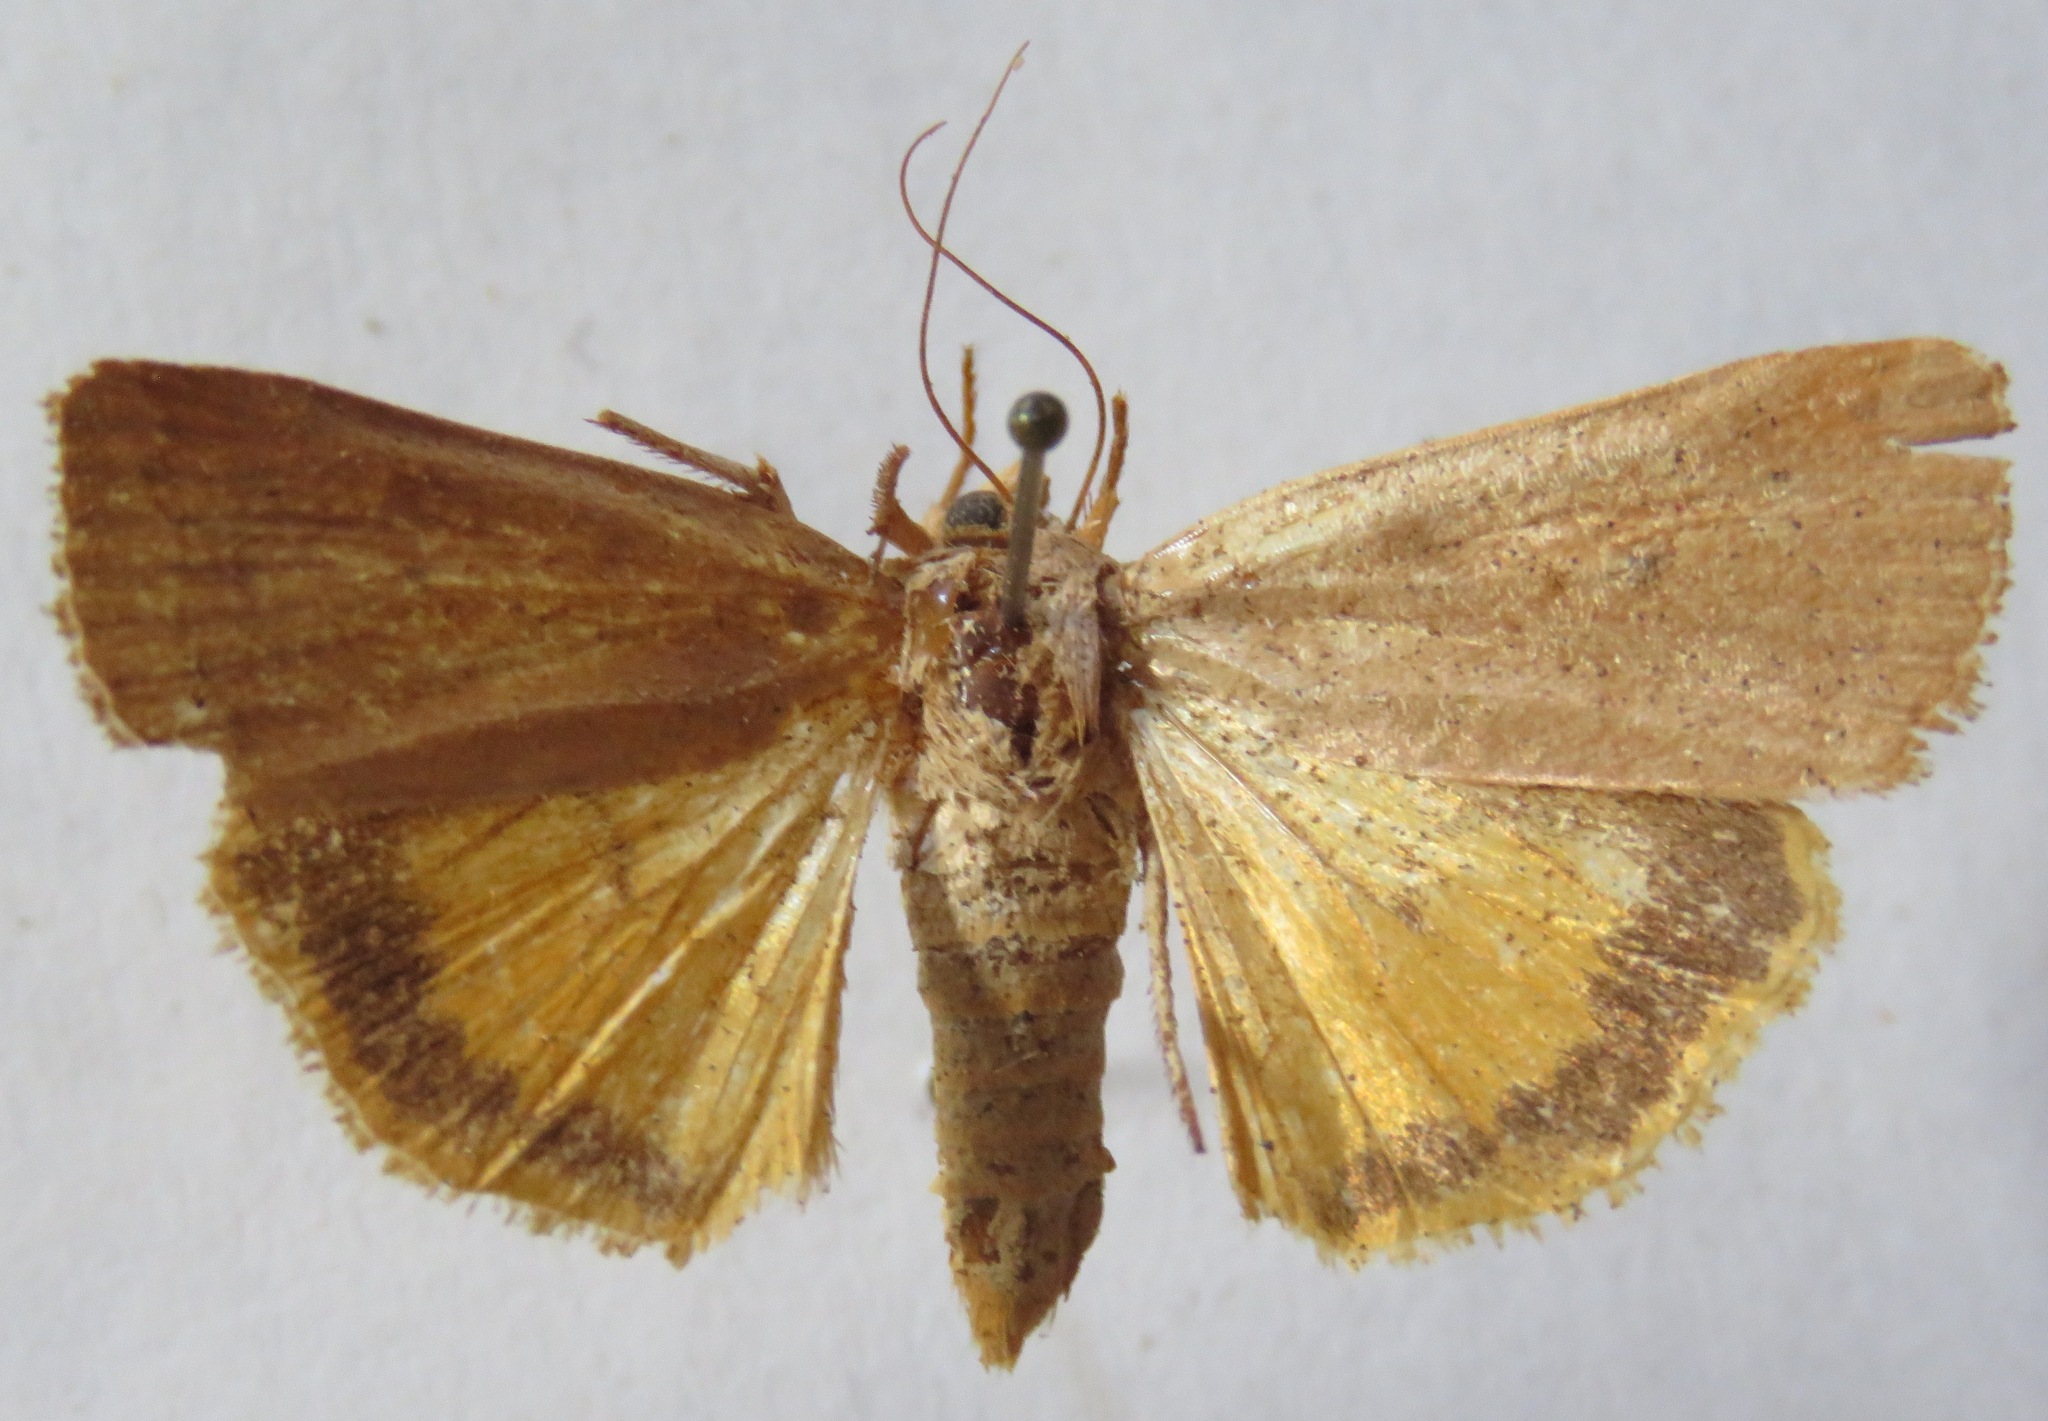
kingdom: Animalia
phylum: Arthropoda
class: Insecta
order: Lepidoptera
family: Noctuidae
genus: Noctua
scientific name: Noctua comes
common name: Lesser yellow underwing
